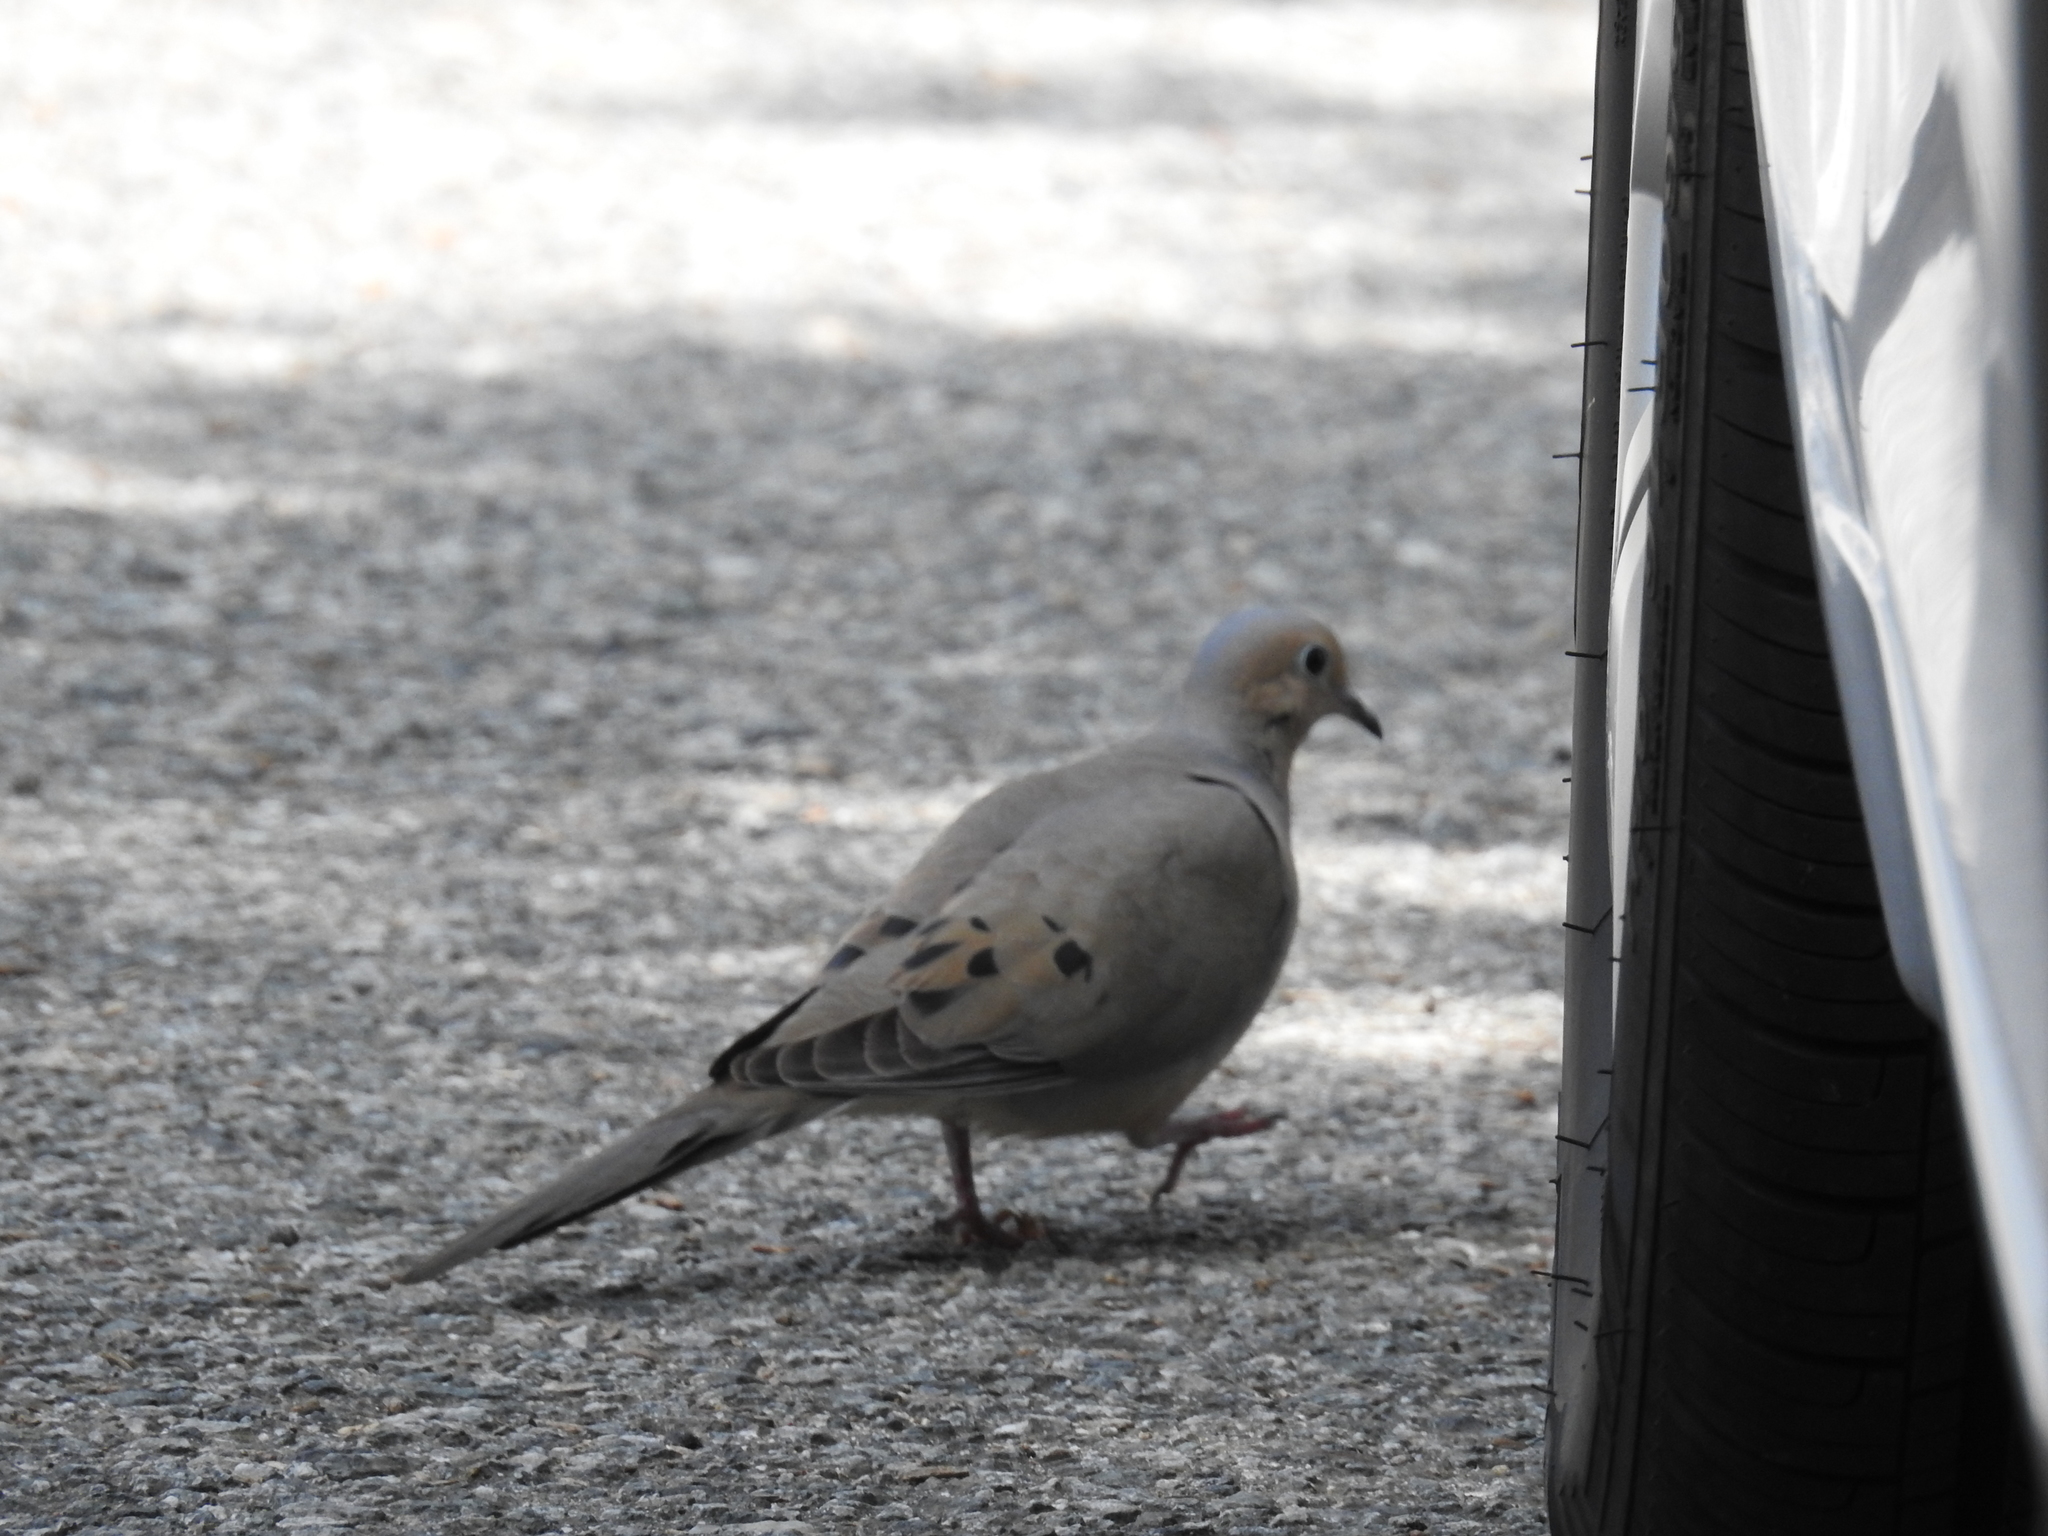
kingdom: Animalia
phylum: Chordata
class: Aves
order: Columbiformes
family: Columbidae
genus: Zenaida
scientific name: Zenaida macroura
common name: Mourning dove
